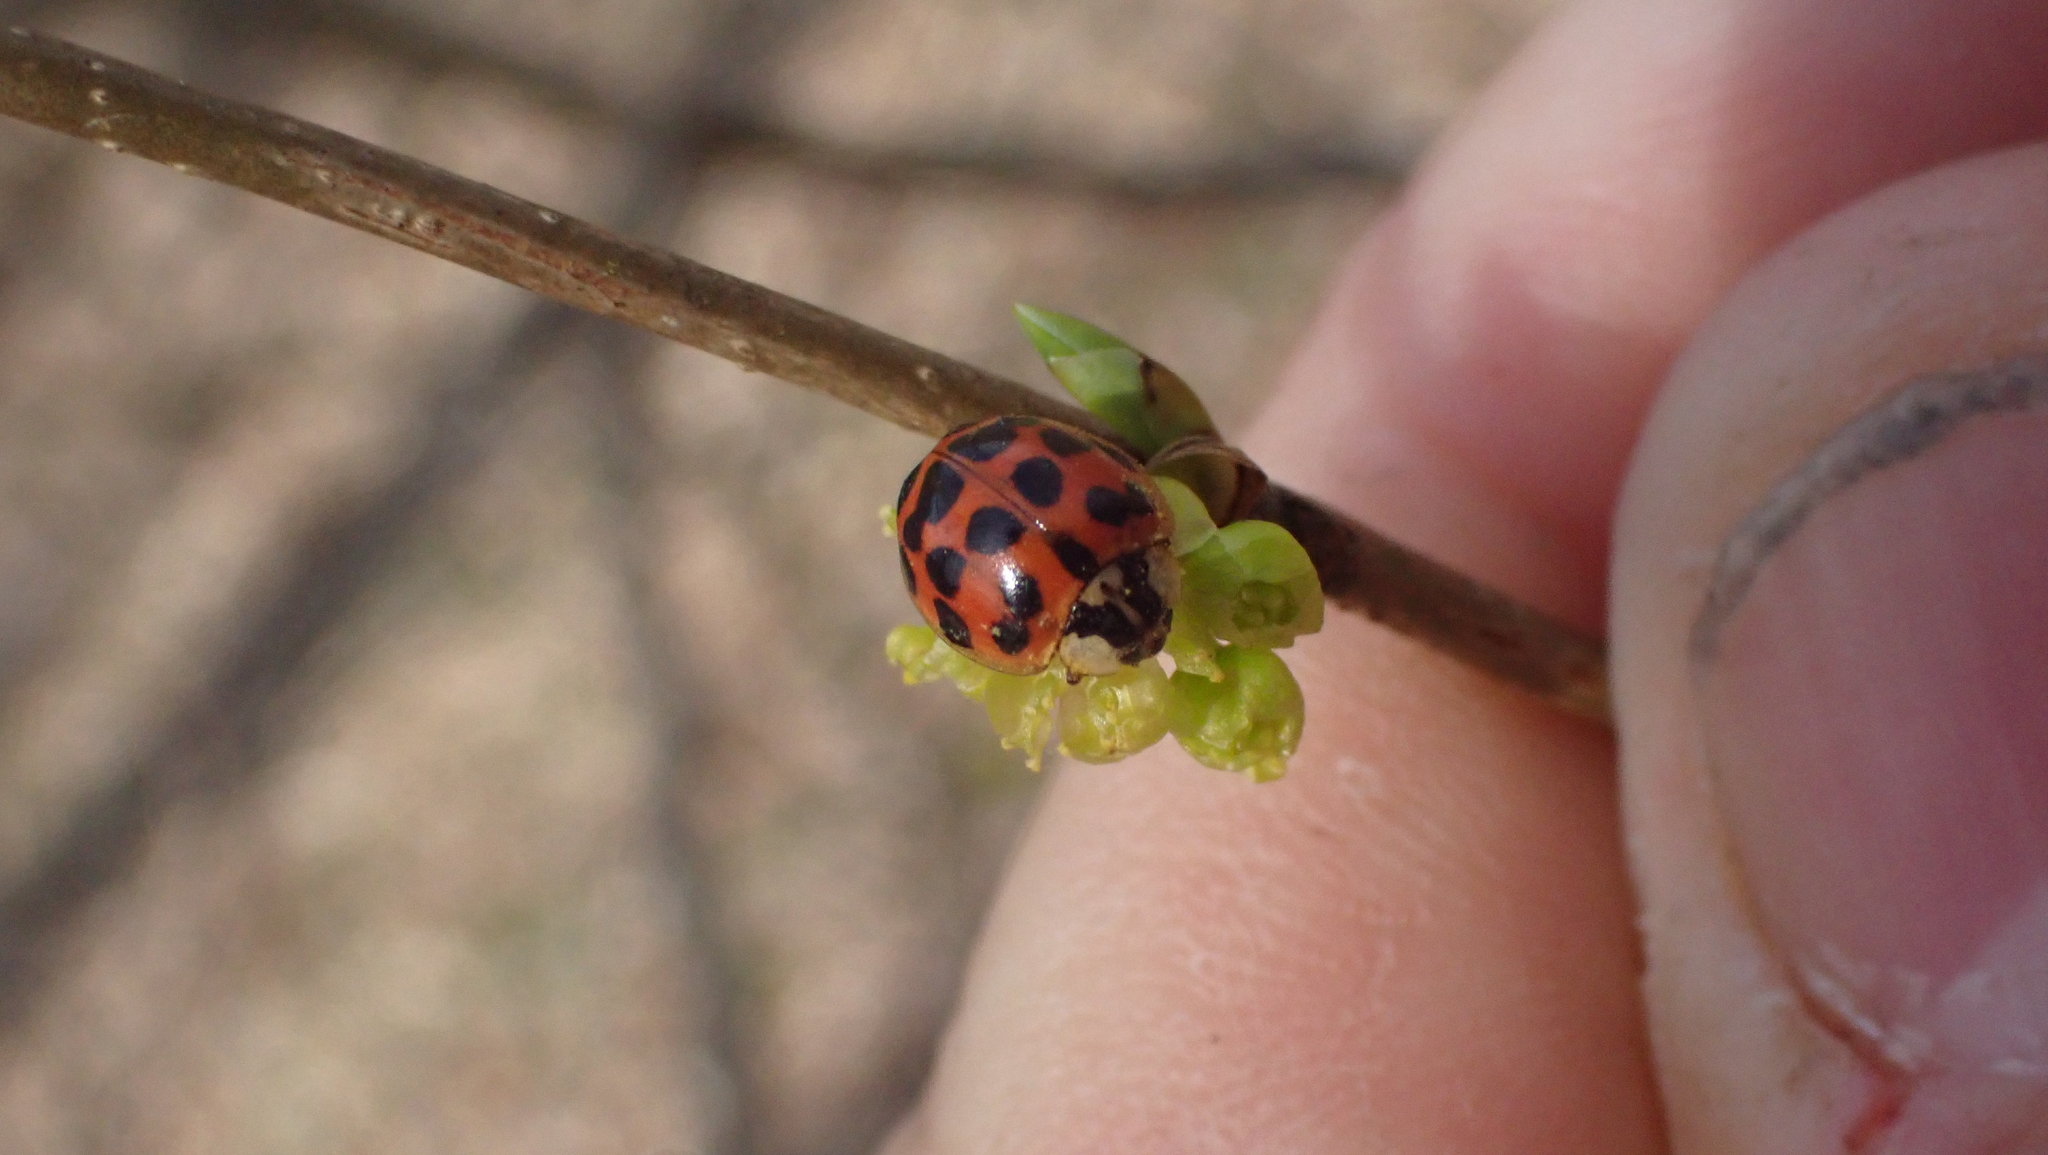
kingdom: Animalia
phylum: Arthropoda
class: Insecta
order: Coleoptera
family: Coccinellidae
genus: Harmonia
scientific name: Harmonia axyridis
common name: Harlequin ladybird
